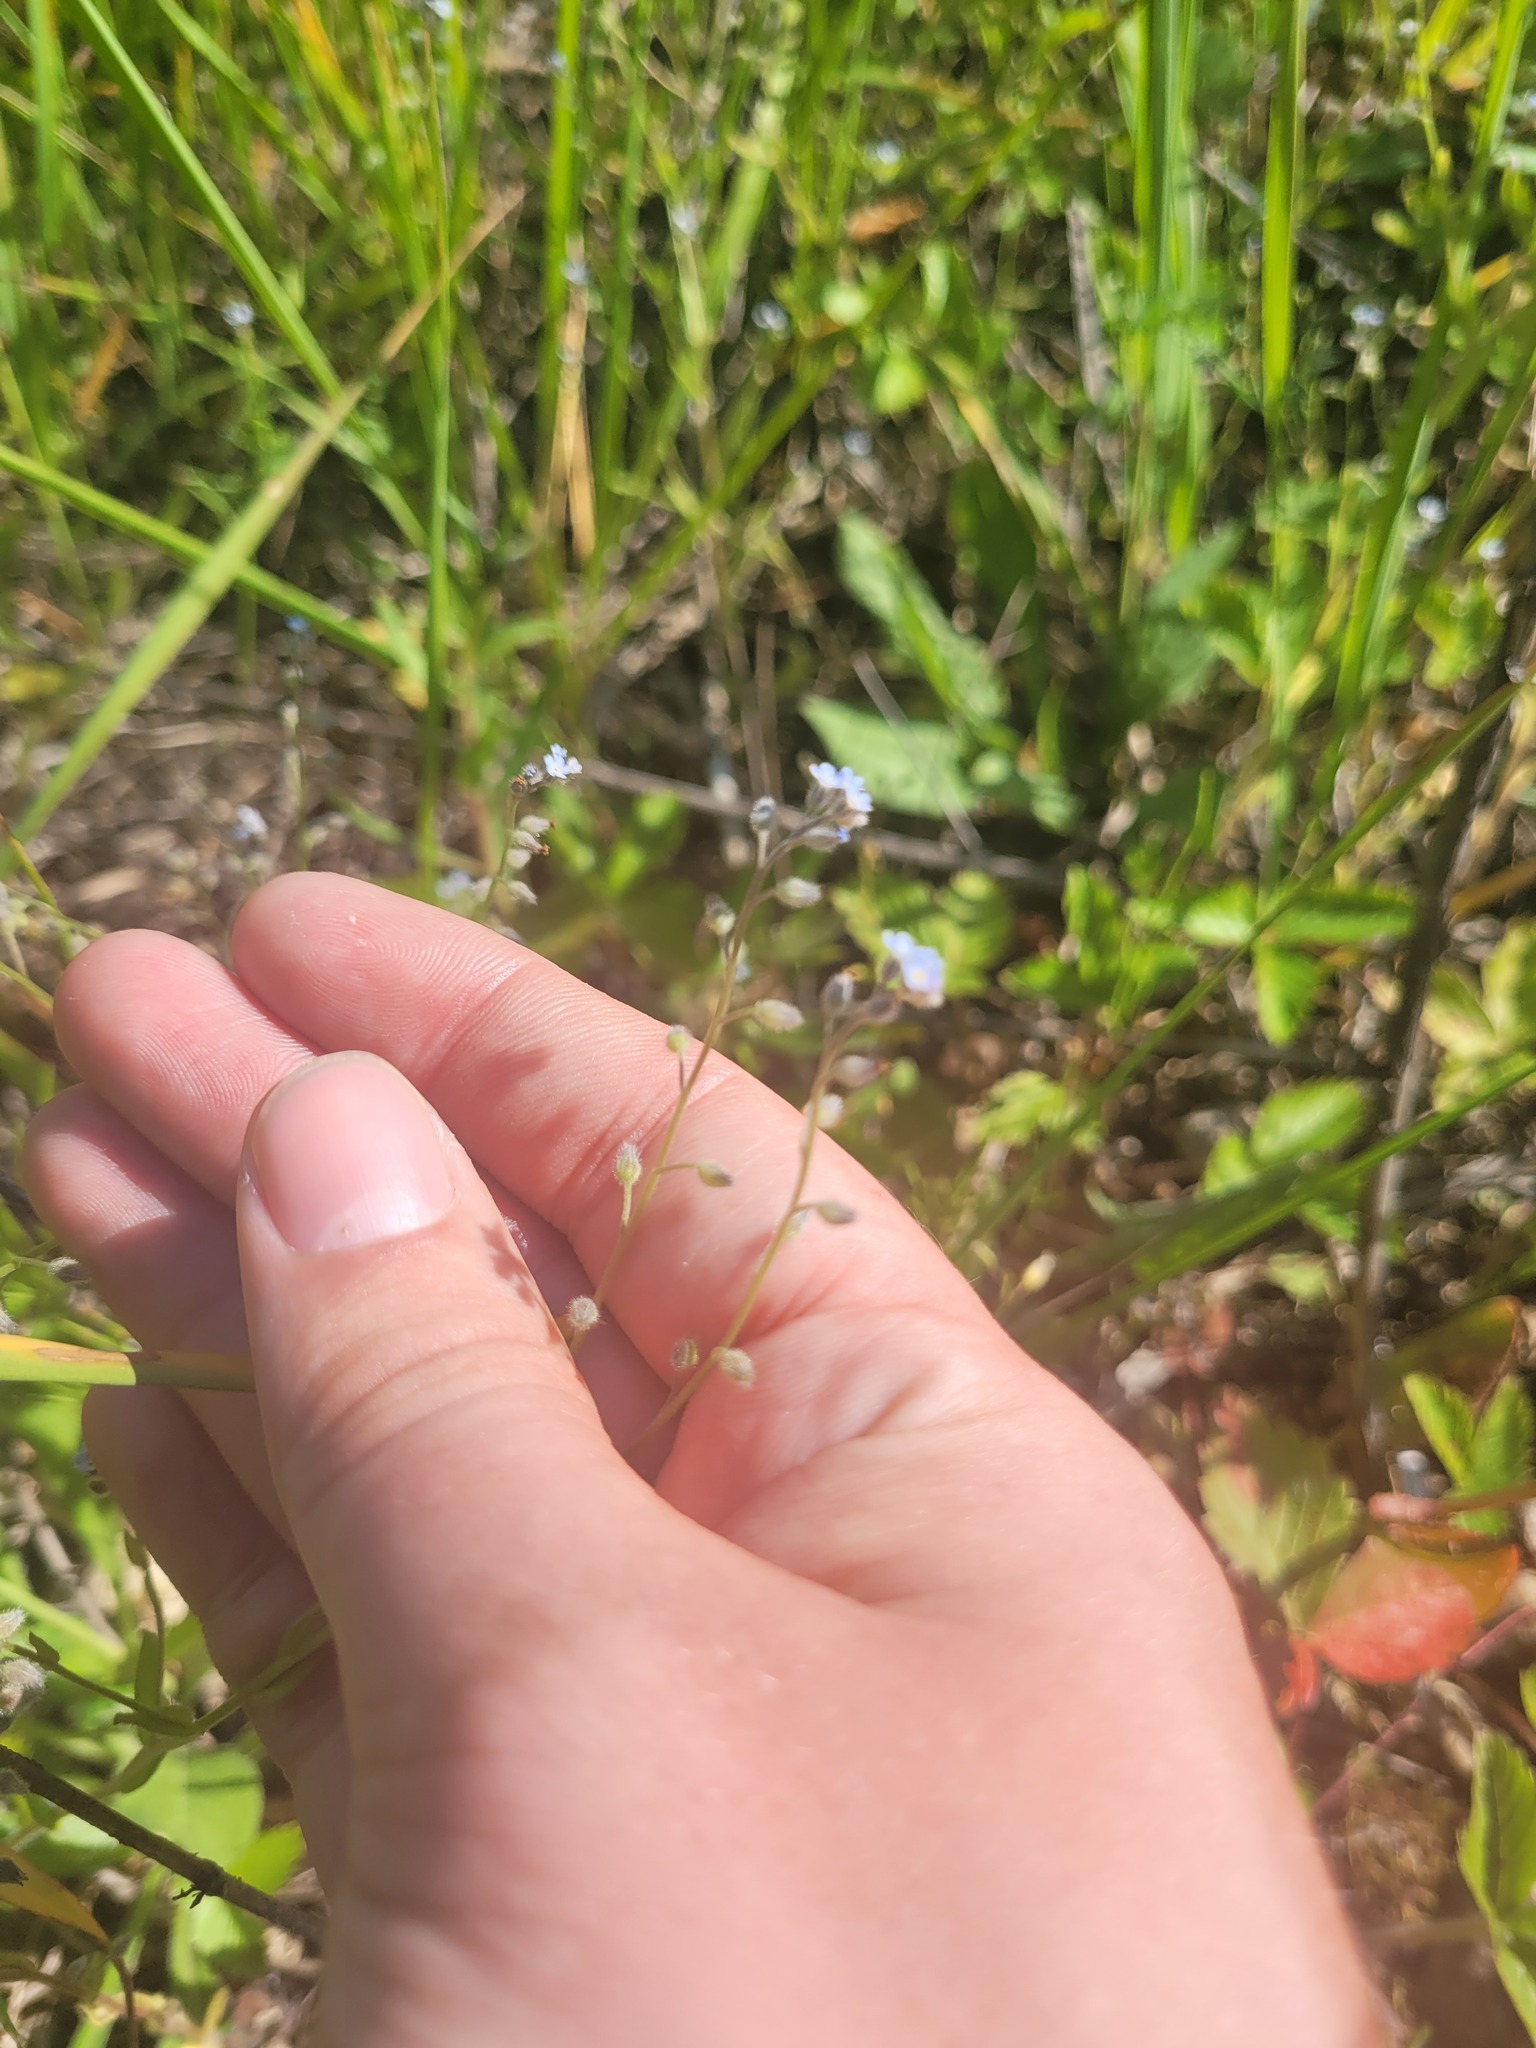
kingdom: Plantae
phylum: Tracheophyta
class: Magnoliopsida
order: Boraginales
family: Boraginaceae
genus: Myosotis
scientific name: Myosotis arvensis
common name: Field forget-me-not
